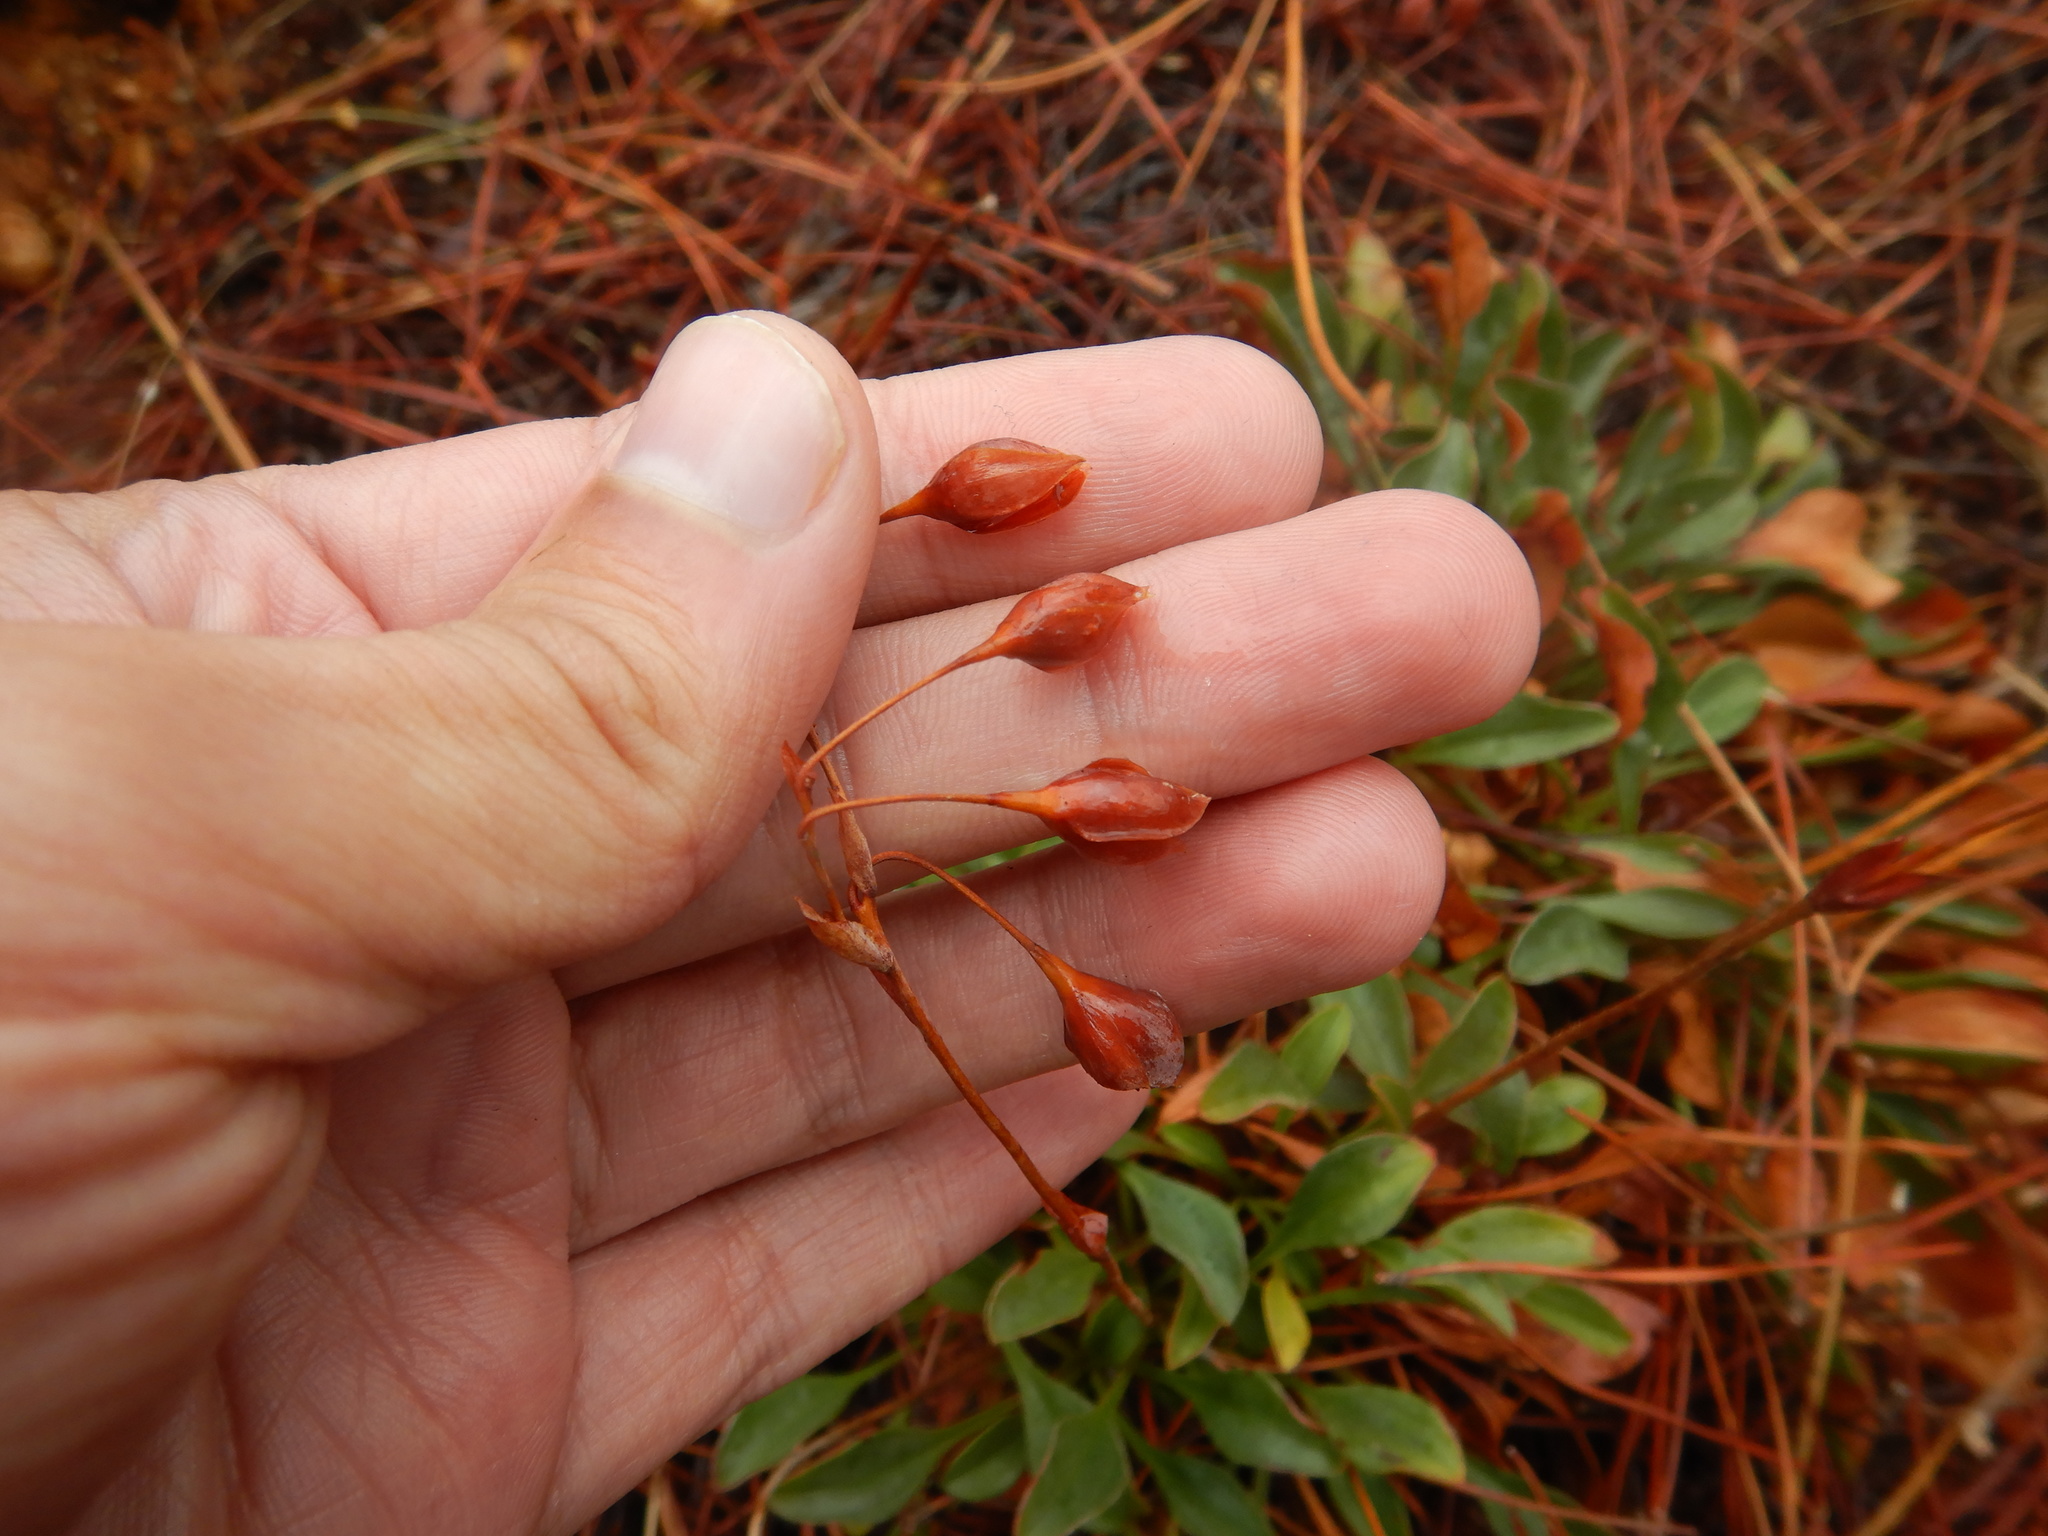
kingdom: Plantae
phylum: Tracheophyta
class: Magnoliopsida
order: Malvales
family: Cistaceae
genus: Tuberaria
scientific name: Tuberaria globulariifolia
